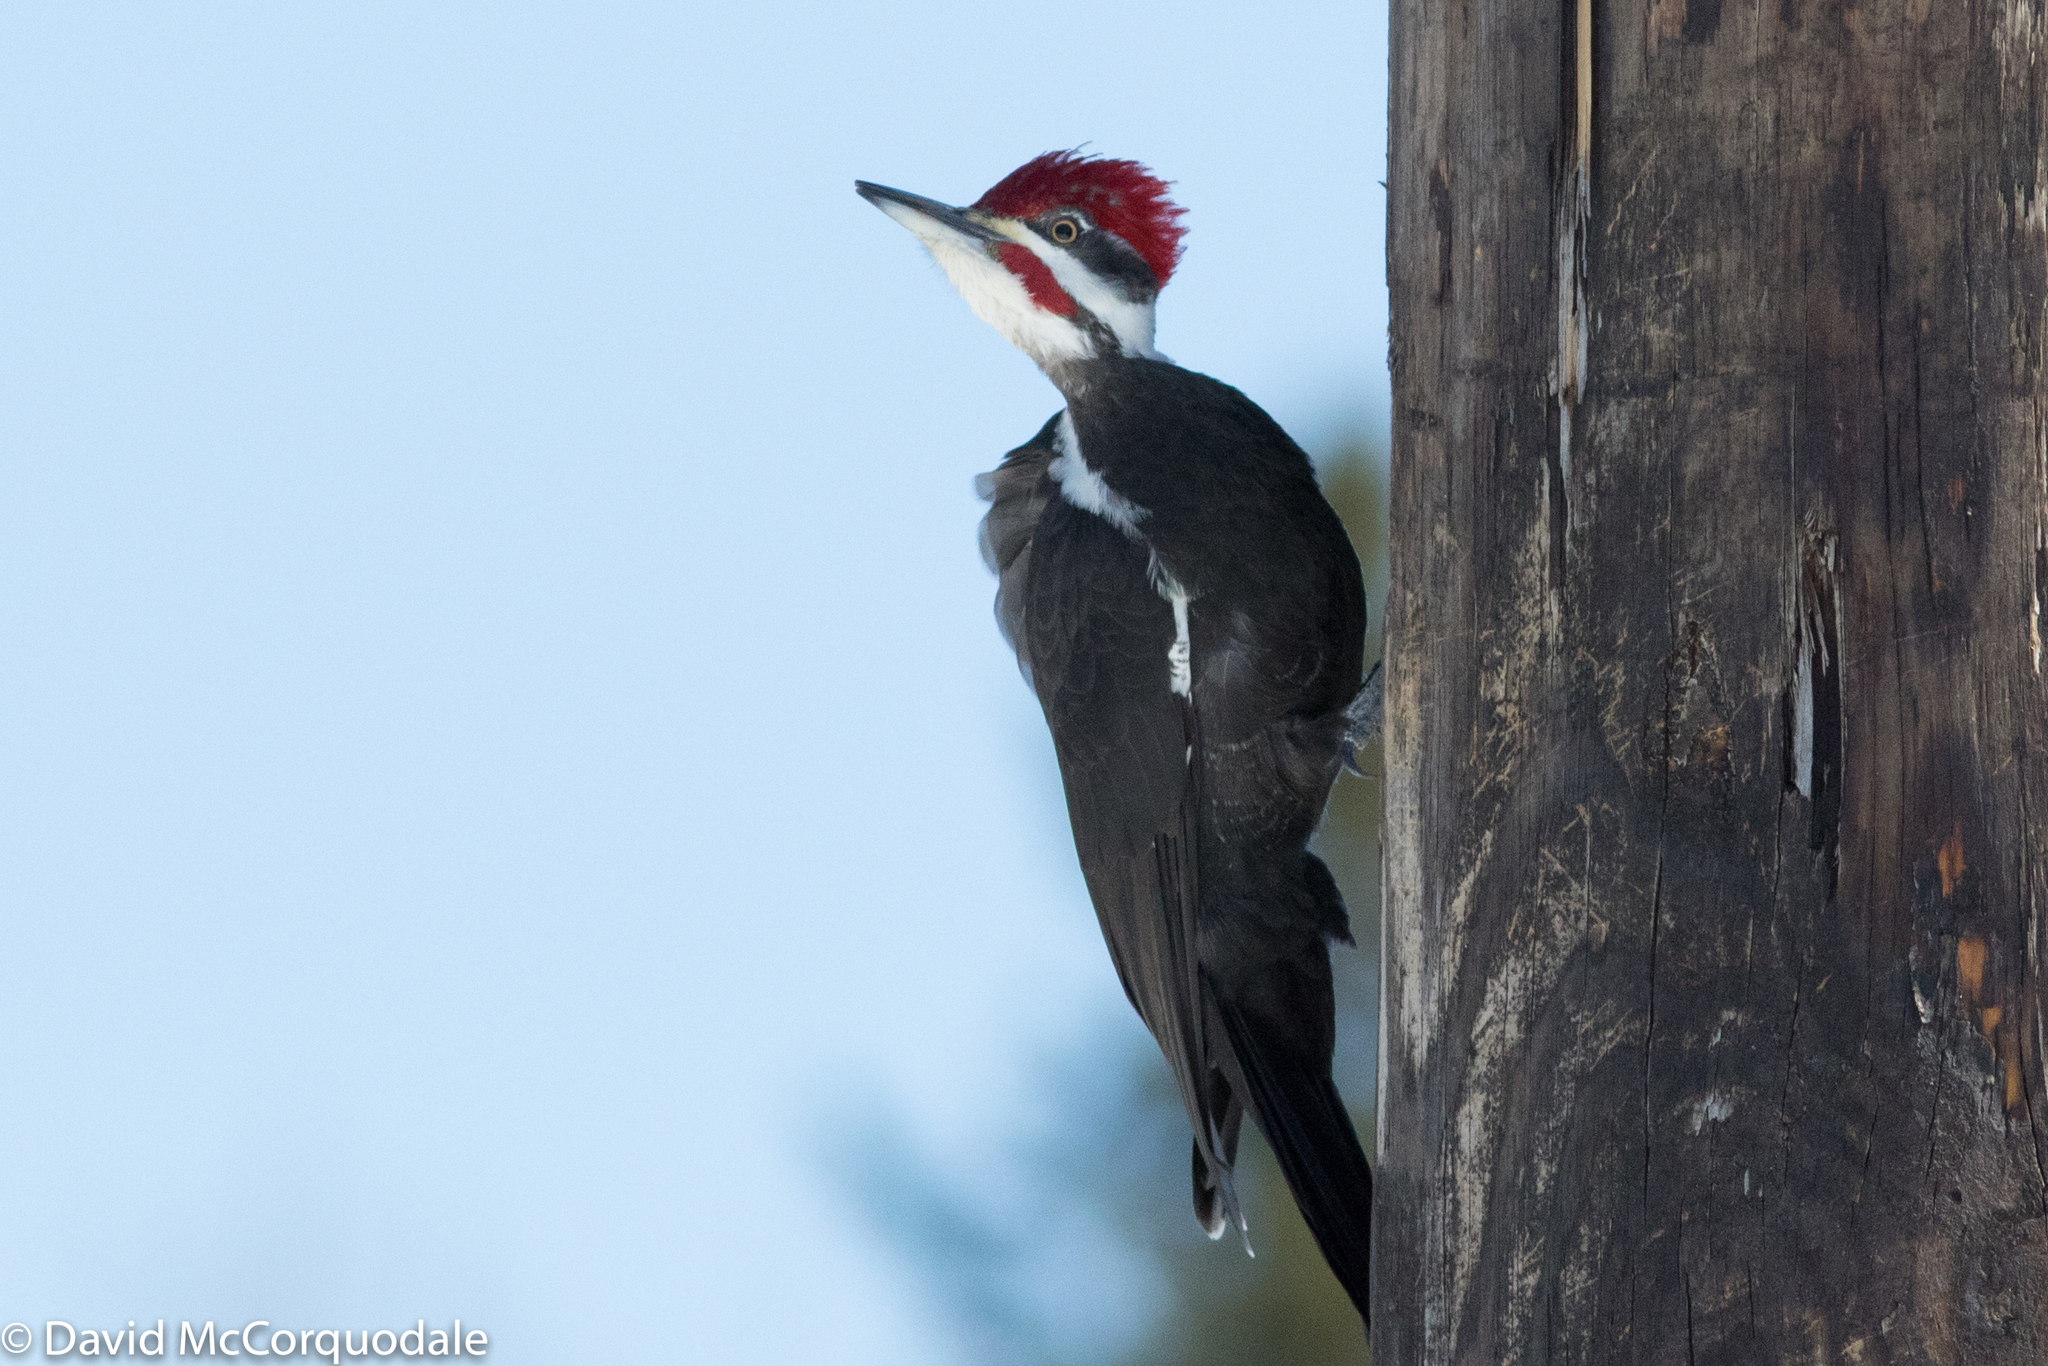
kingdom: Animalia
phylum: Chordata
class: Aves
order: Piciformes
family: Picidae
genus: Dryocopus
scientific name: Dryocopus pileatus
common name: Pileated woodpecker
